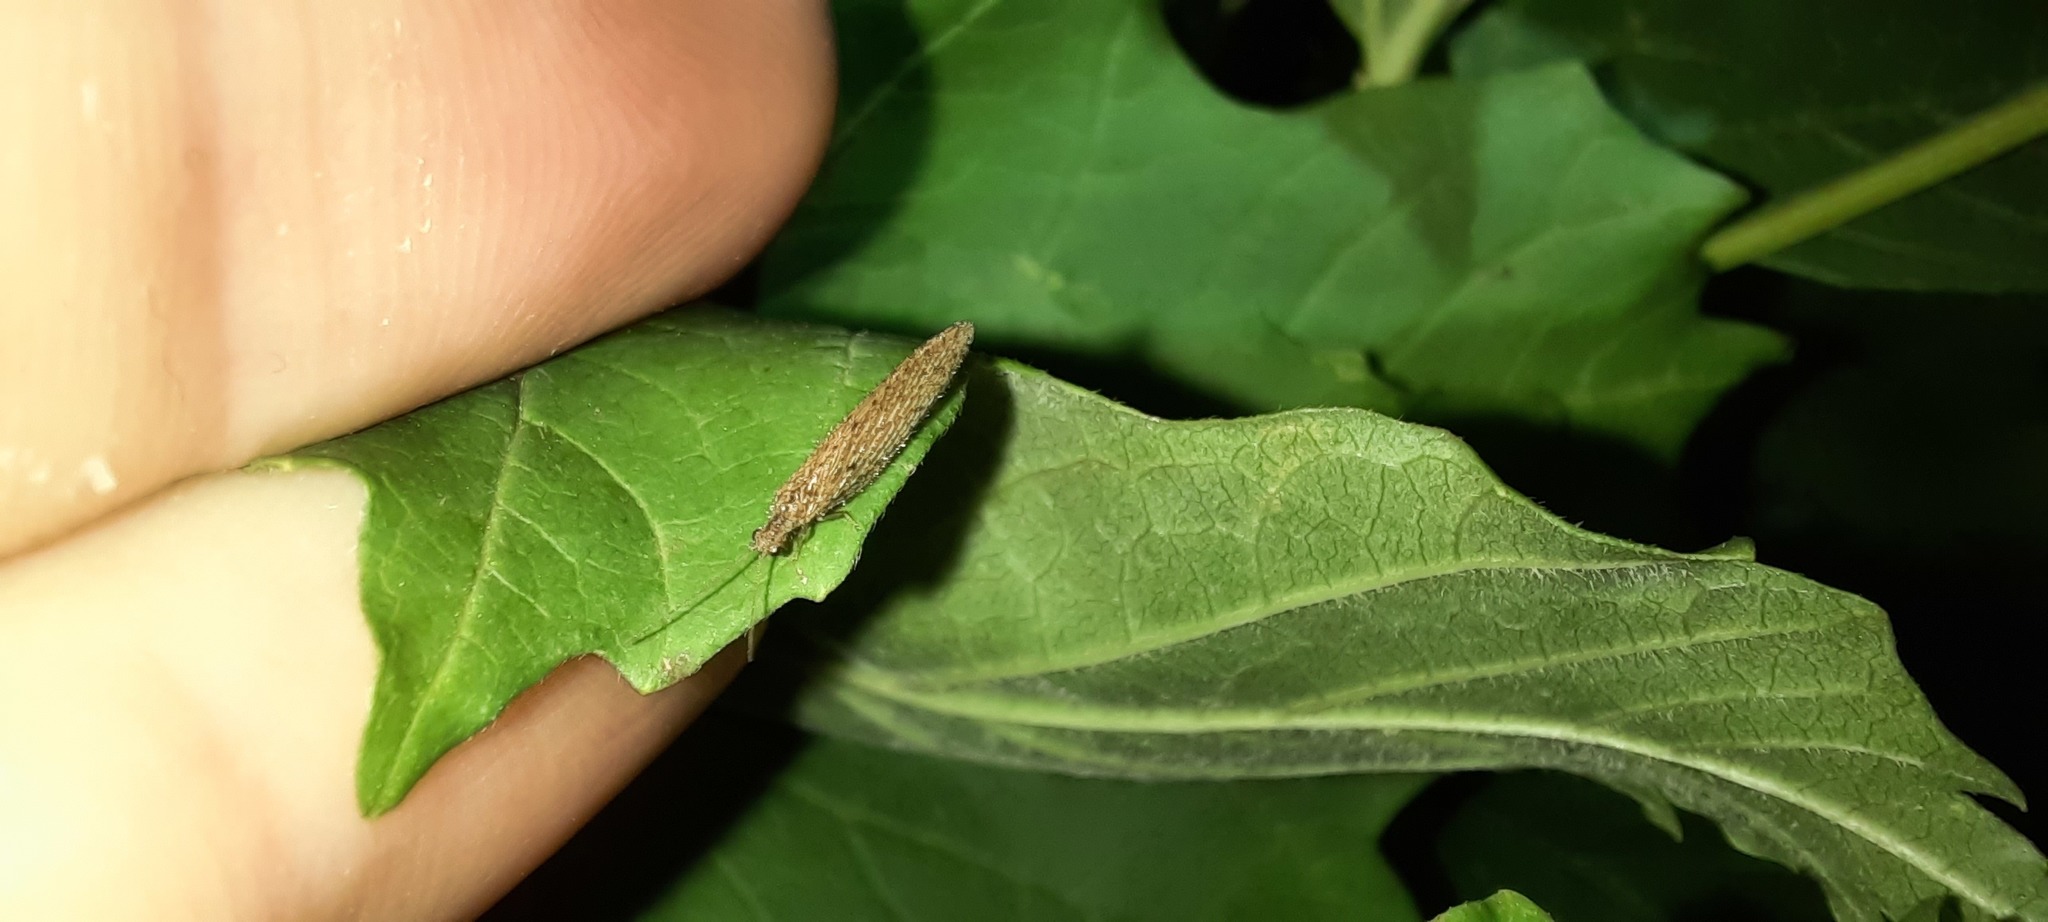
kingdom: Animalia
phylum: Arthropoda
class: Insecta
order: Neuroptera
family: Hemerobiidae
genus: Micromus
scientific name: Micromus tasmaniae
